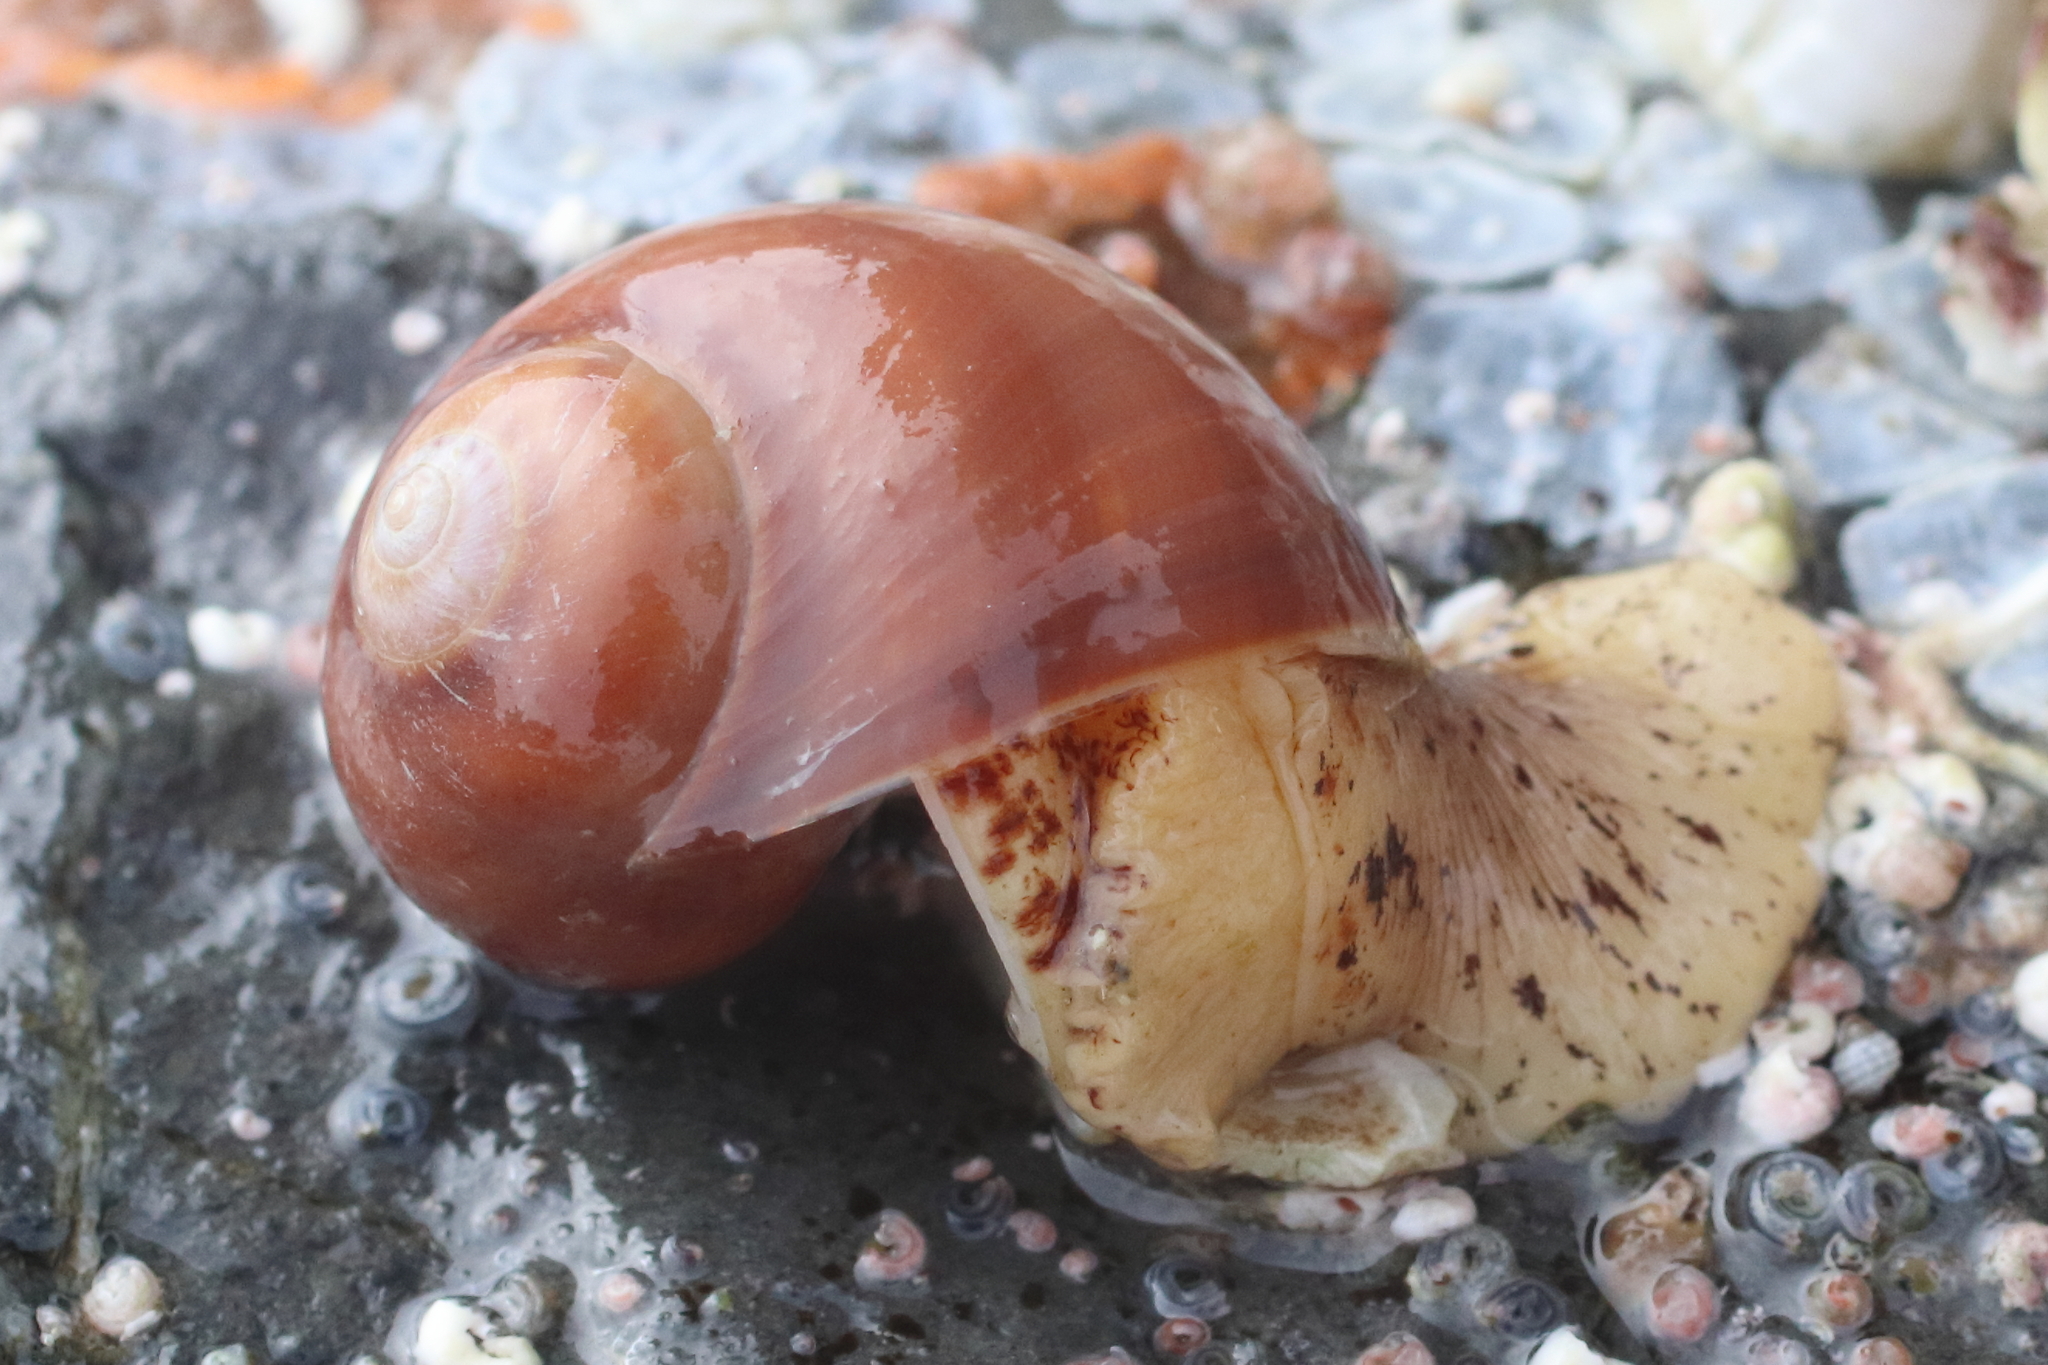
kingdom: Animalia
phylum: Mollusca
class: Gastropoda
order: Littorinimorpha
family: Naticidae
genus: Cryptonatica
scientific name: Cryptonatica aleutica
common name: Aleutian moon snail
